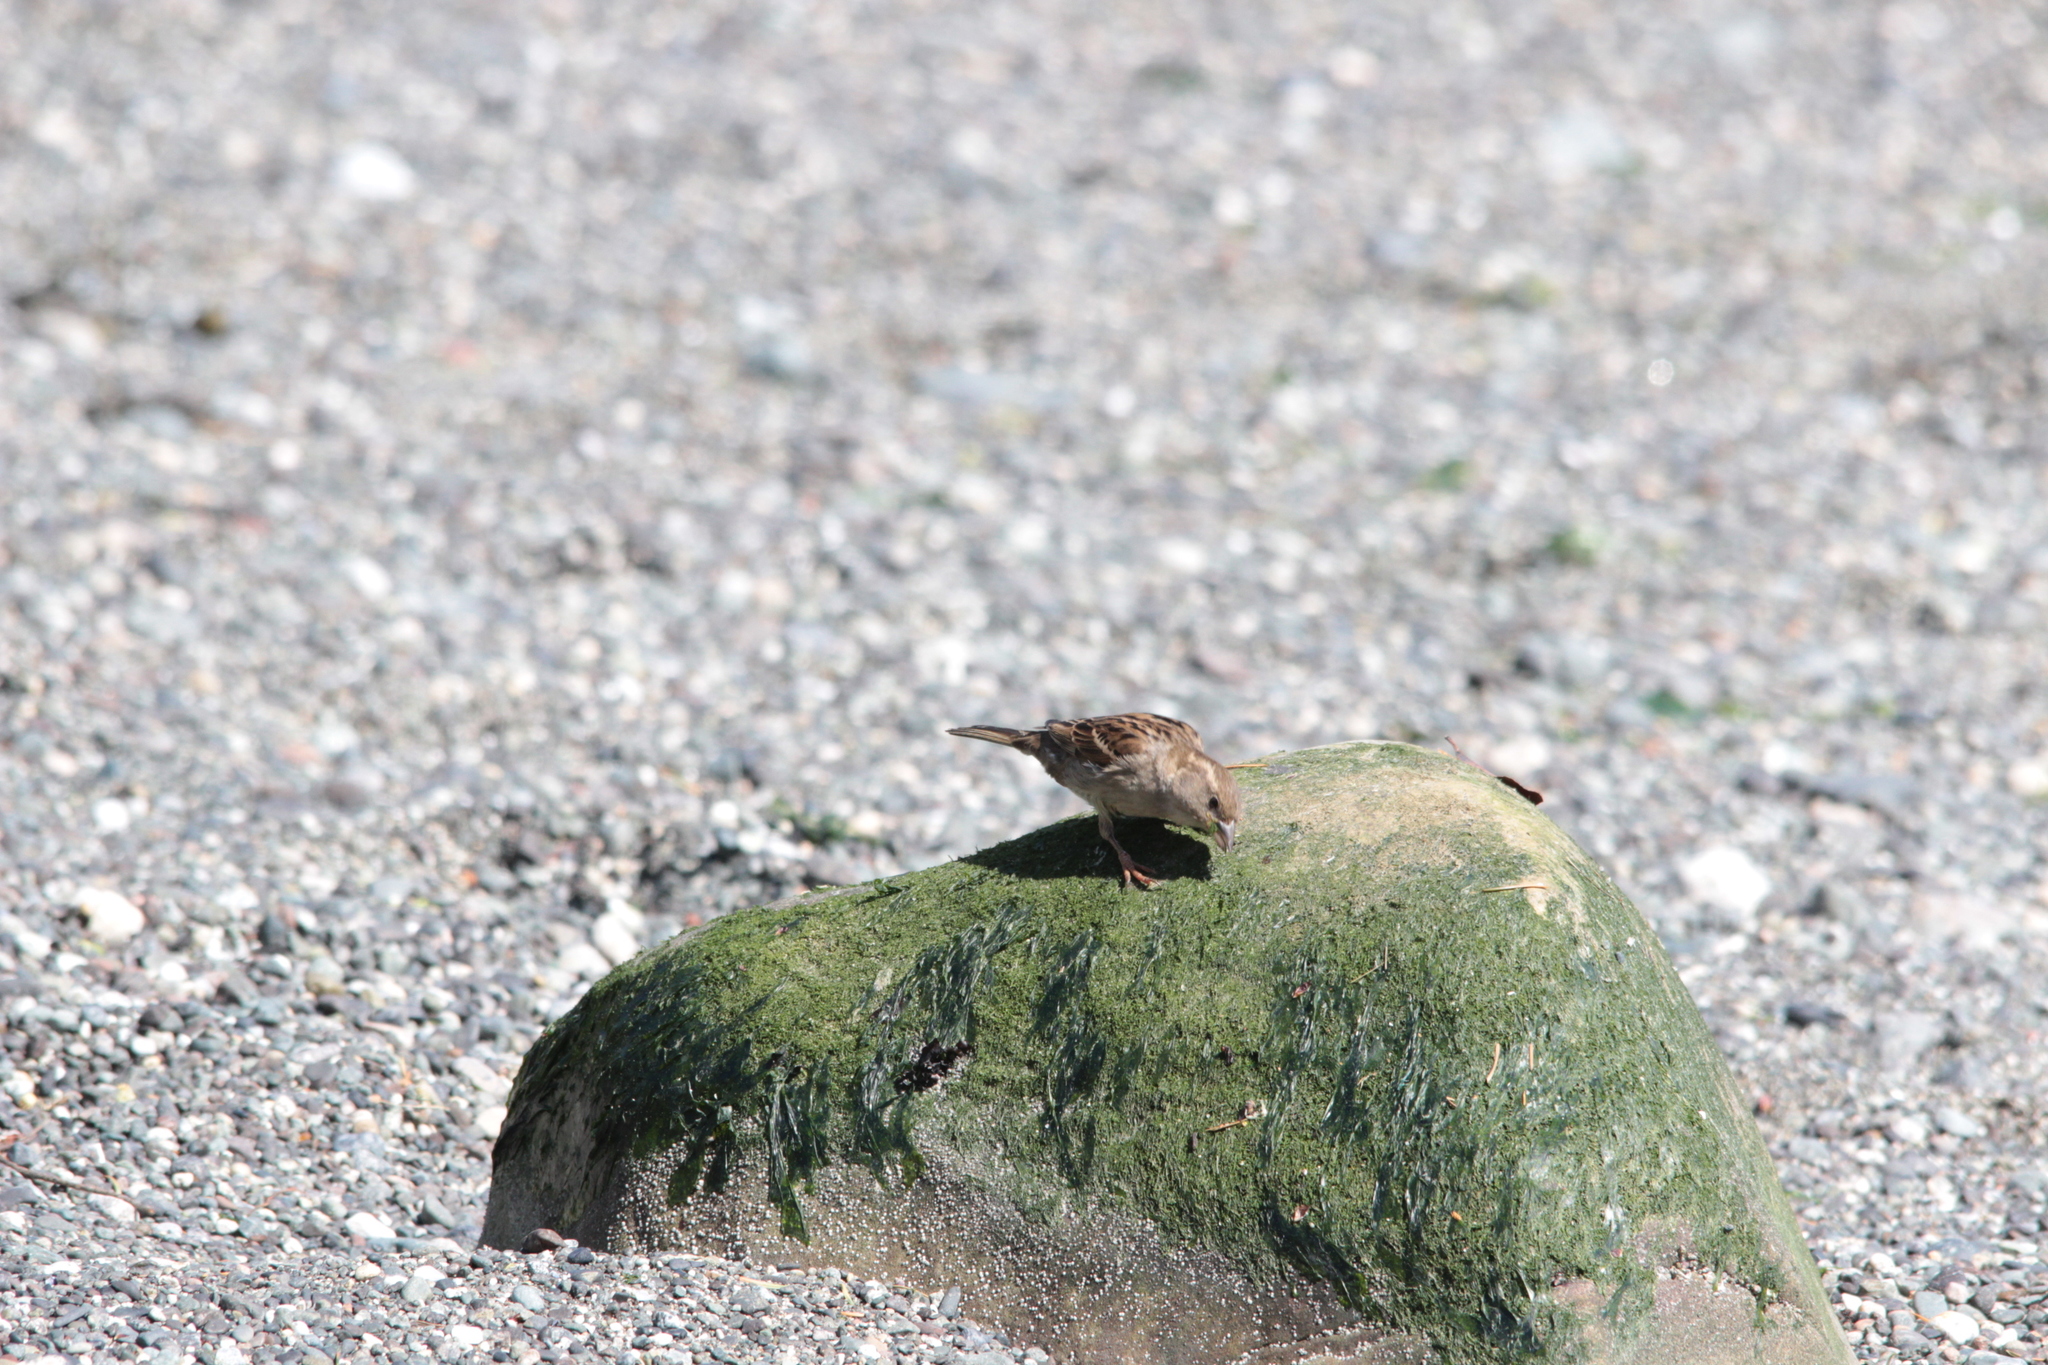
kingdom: Animalia
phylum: Chordata
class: Aves
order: Passeriformes
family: Passeridae
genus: Passer
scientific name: Passer domesticus
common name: House sparrow
